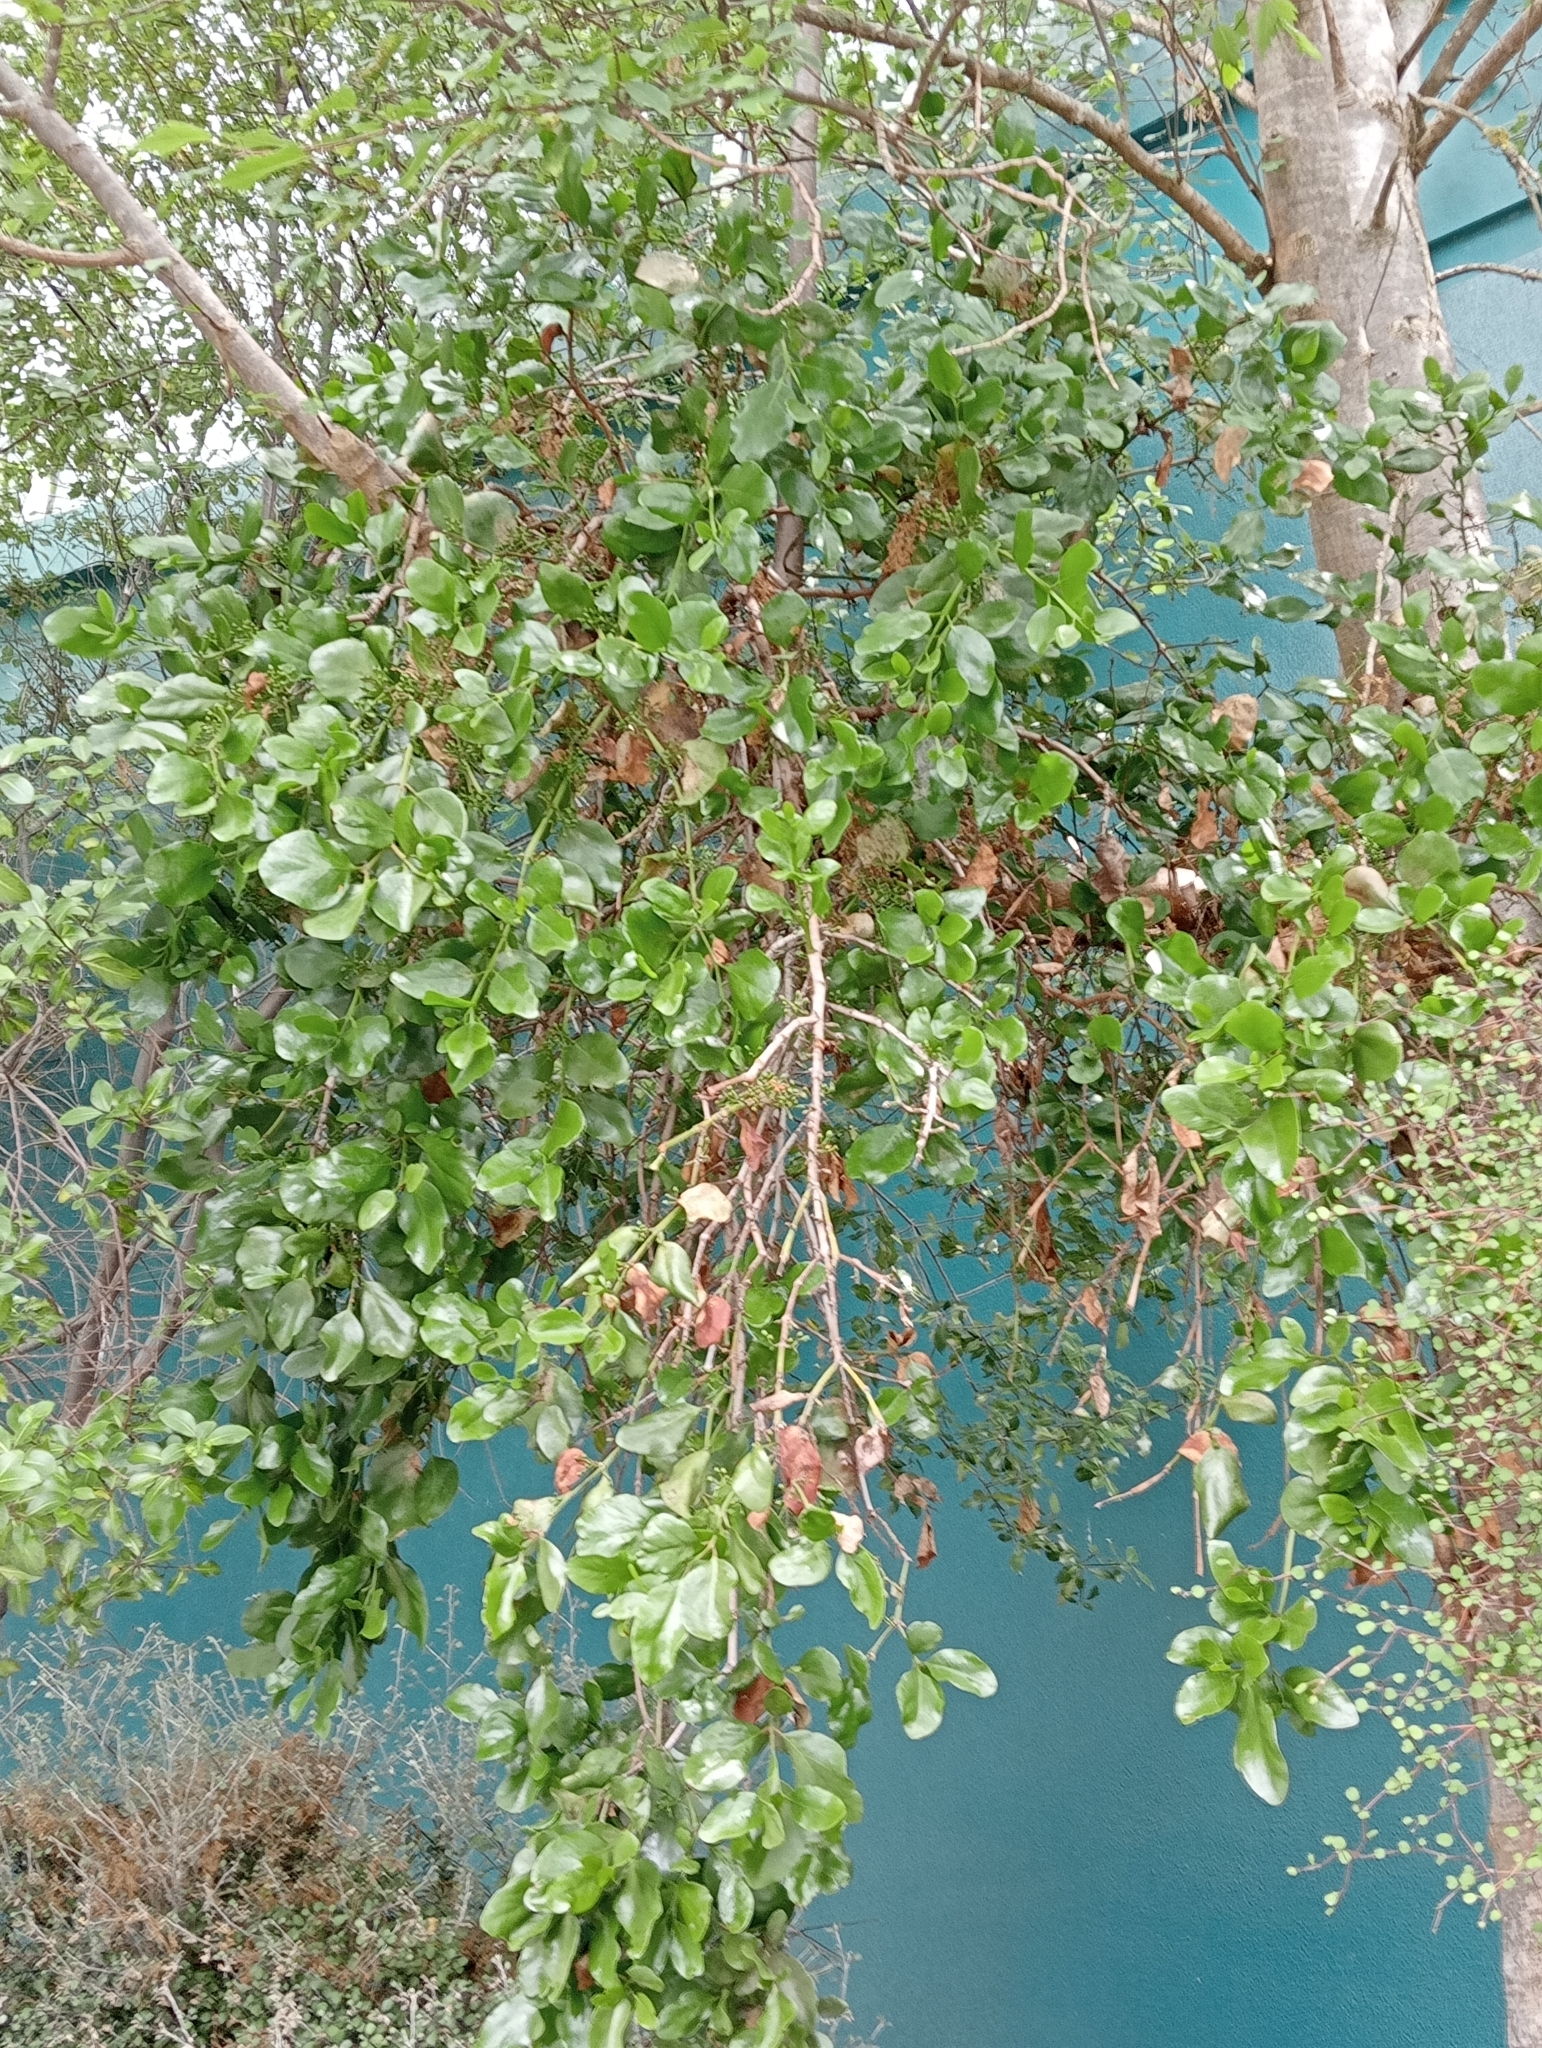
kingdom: Plantae
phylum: Tracheophyta
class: Magnoliopsida
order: Santalales
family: Loranthaceae
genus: Ileostylus
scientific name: Ileostylus micranthus
